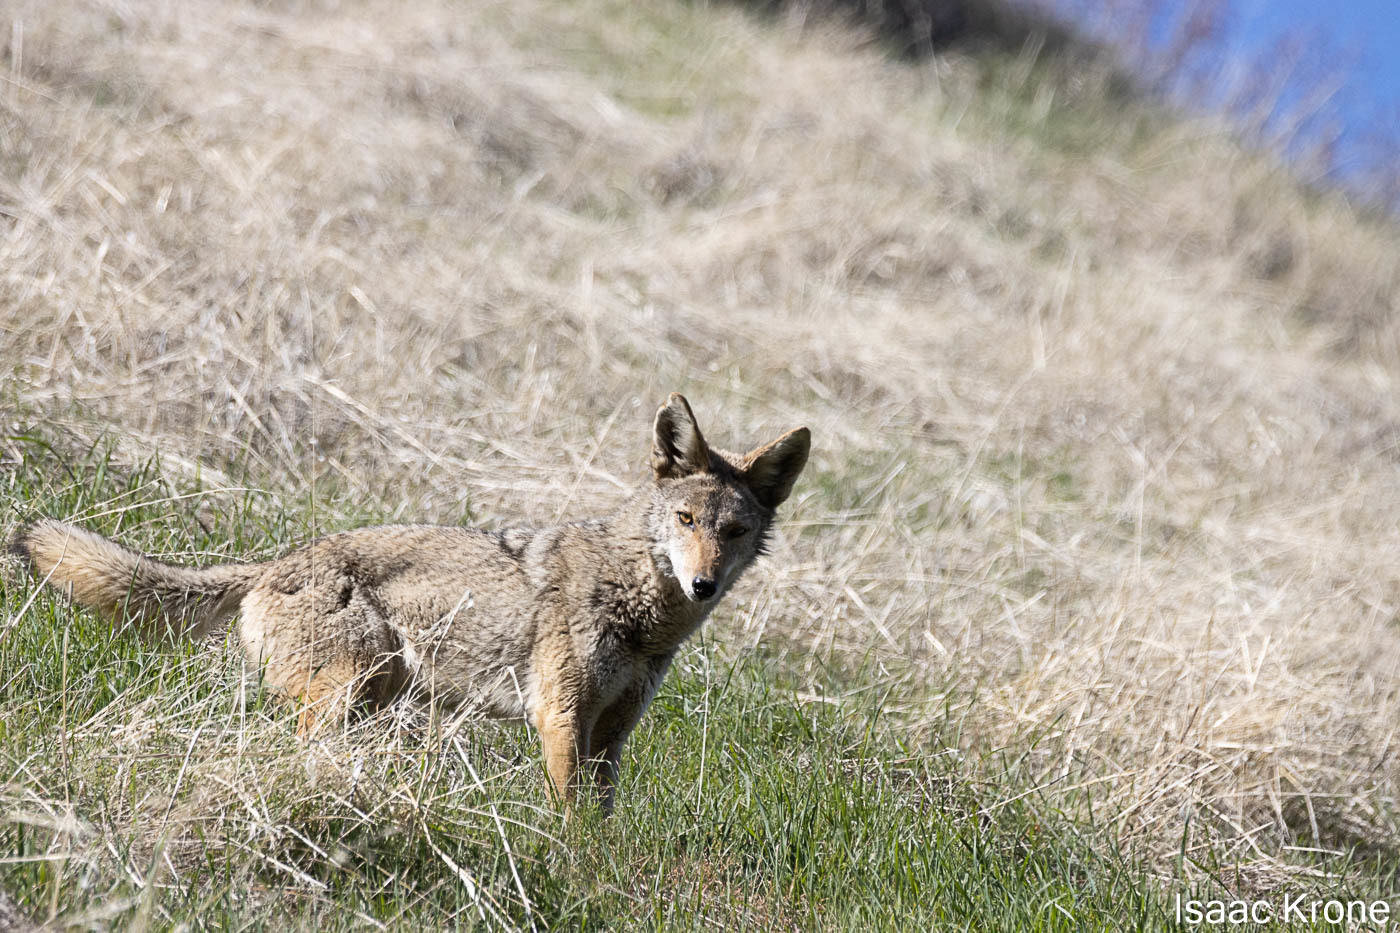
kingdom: Animalia
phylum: Chordata
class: Mammalia
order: Carnivora
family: Canidae
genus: Canis
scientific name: Canis latrans
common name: Coyote
